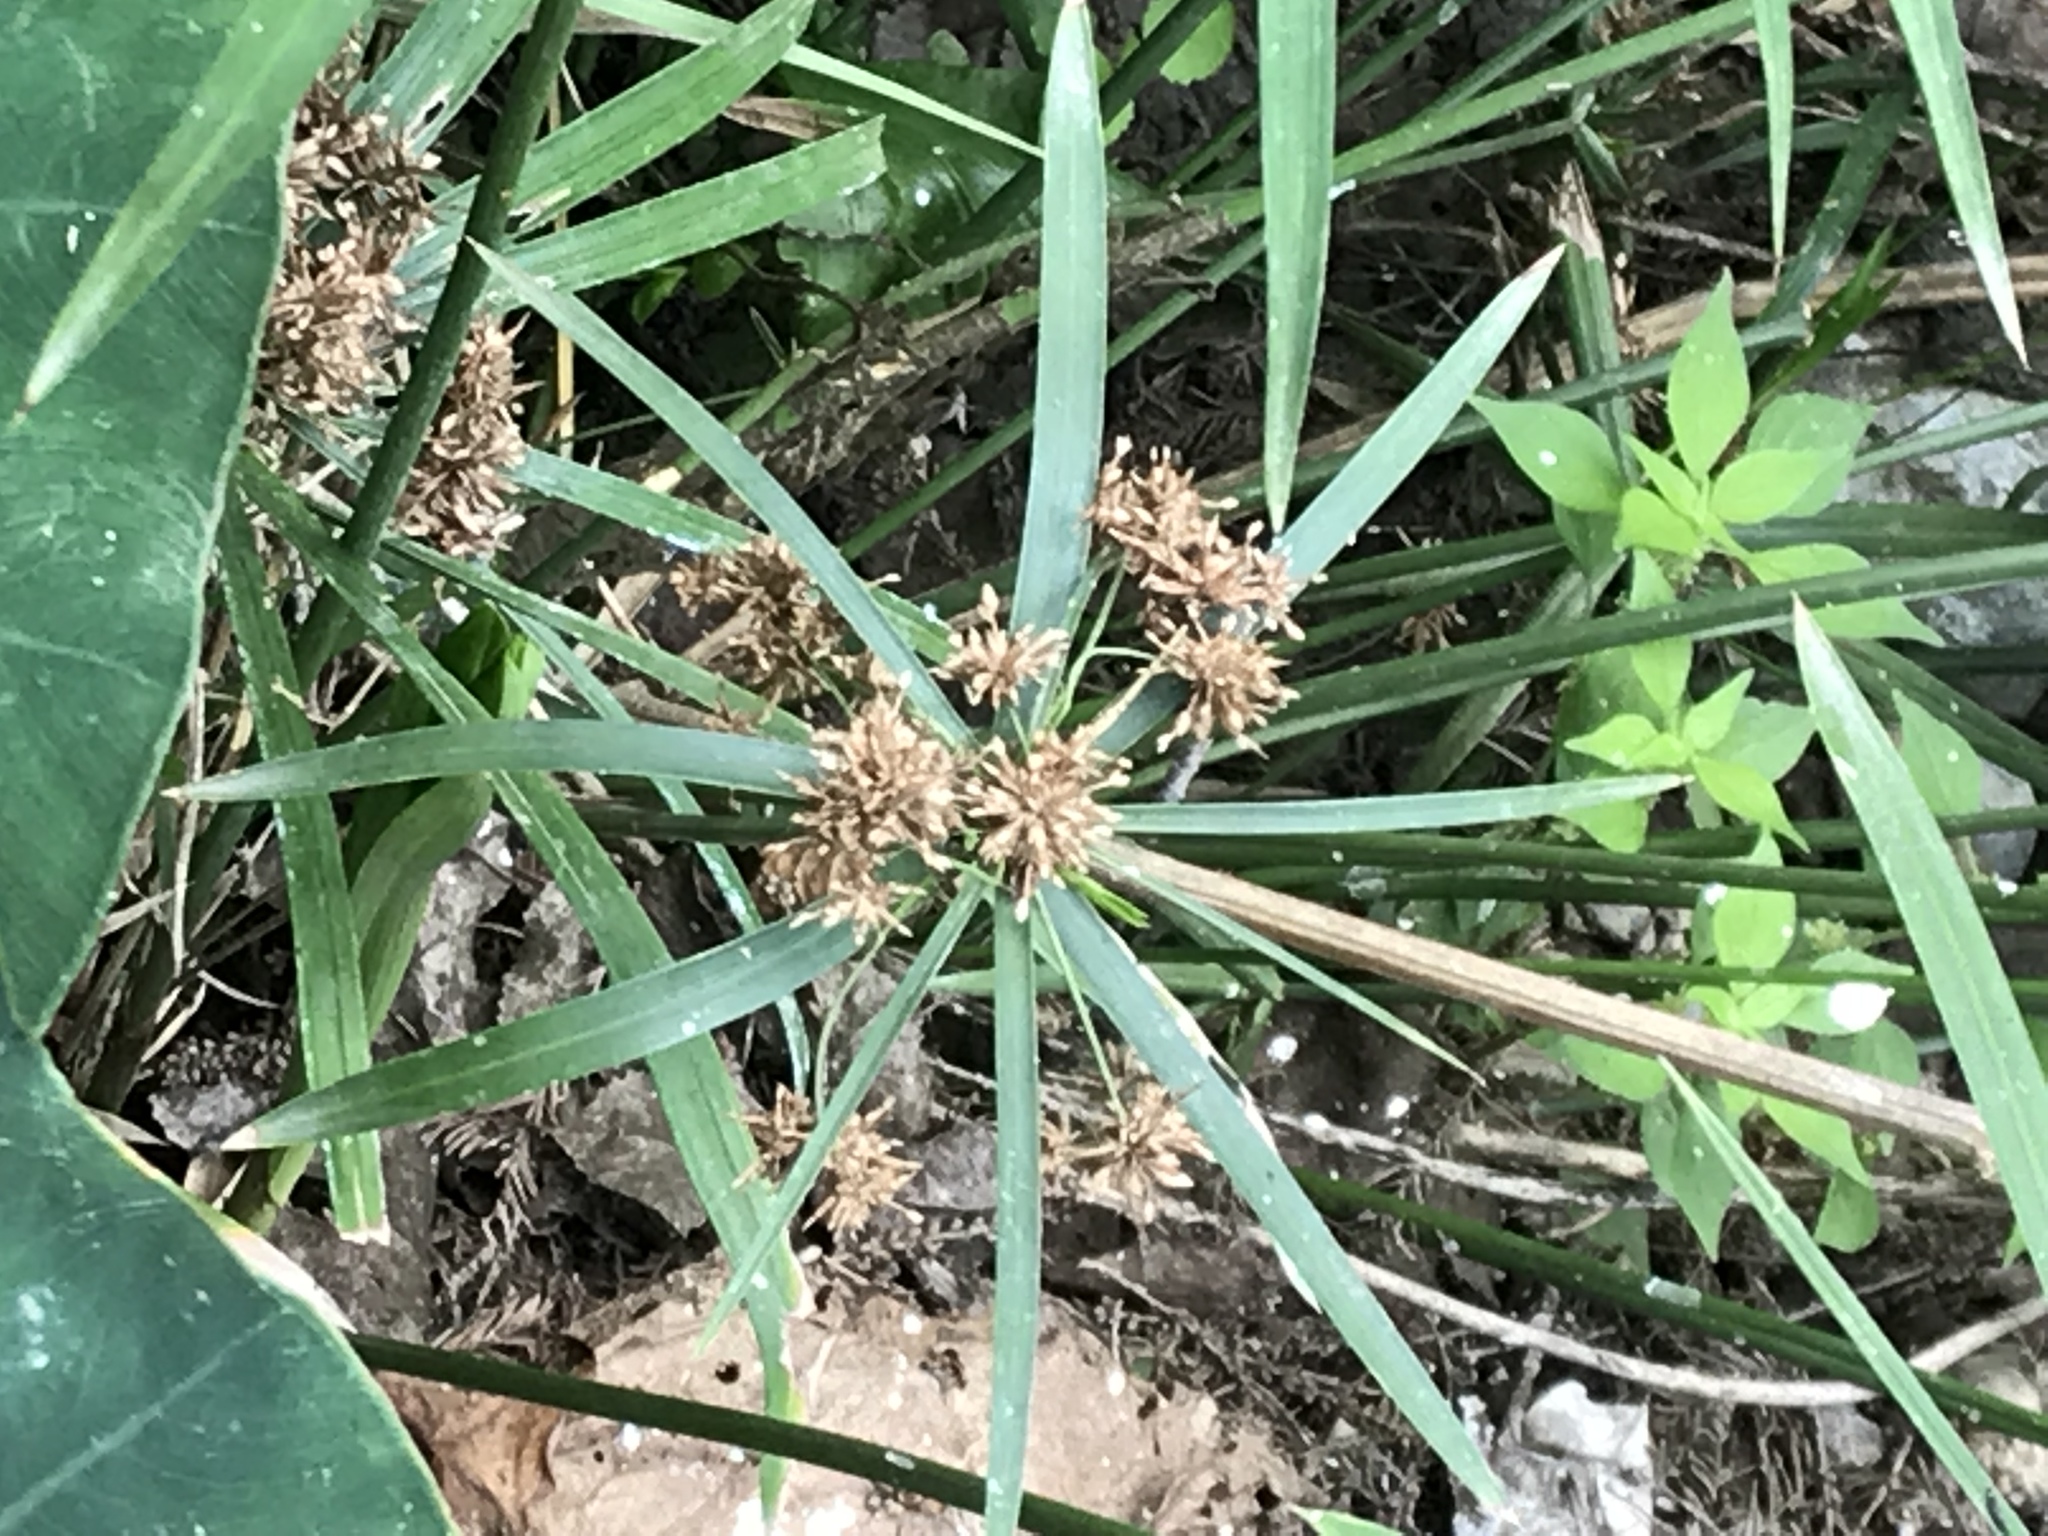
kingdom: Plantae
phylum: Tracheophyta
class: Liliopsida
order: Poales
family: Cyperaceae
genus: Cyperus
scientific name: Cyperus alternifolius
